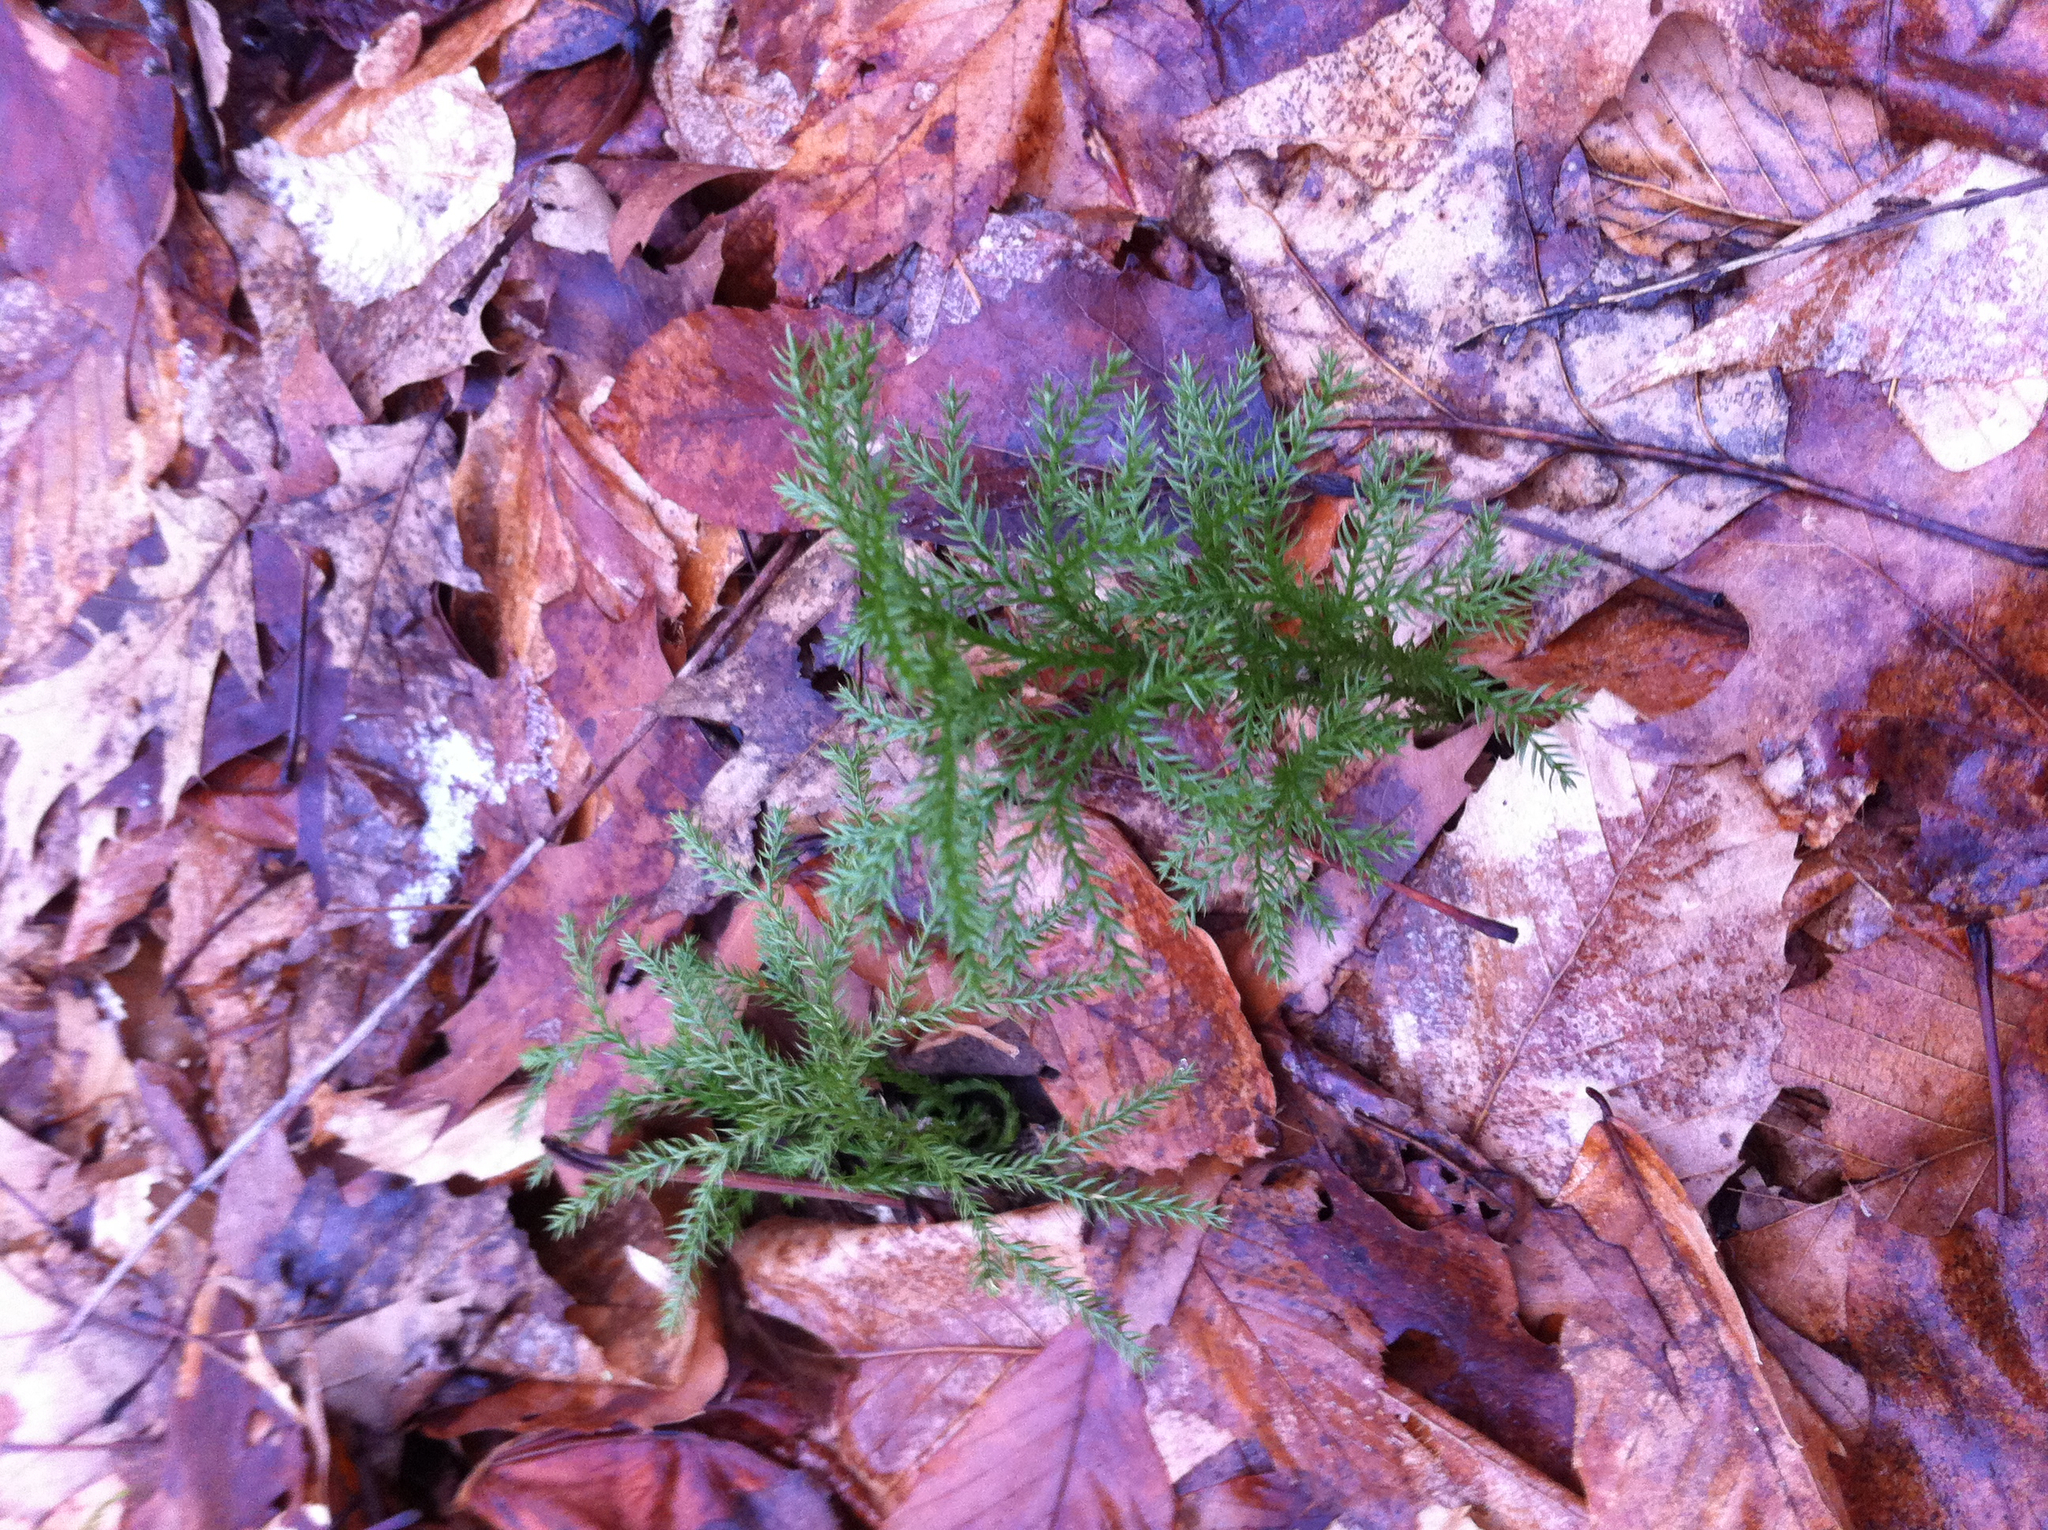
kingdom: Plantae
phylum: Tracheophyta
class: Lycopodiopsida
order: Lycopodiales
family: Lycopodiaceae
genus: Dendrolycopodium
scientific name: Dendrolycopodium dendroideum
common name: Northern tree-clubmoss
